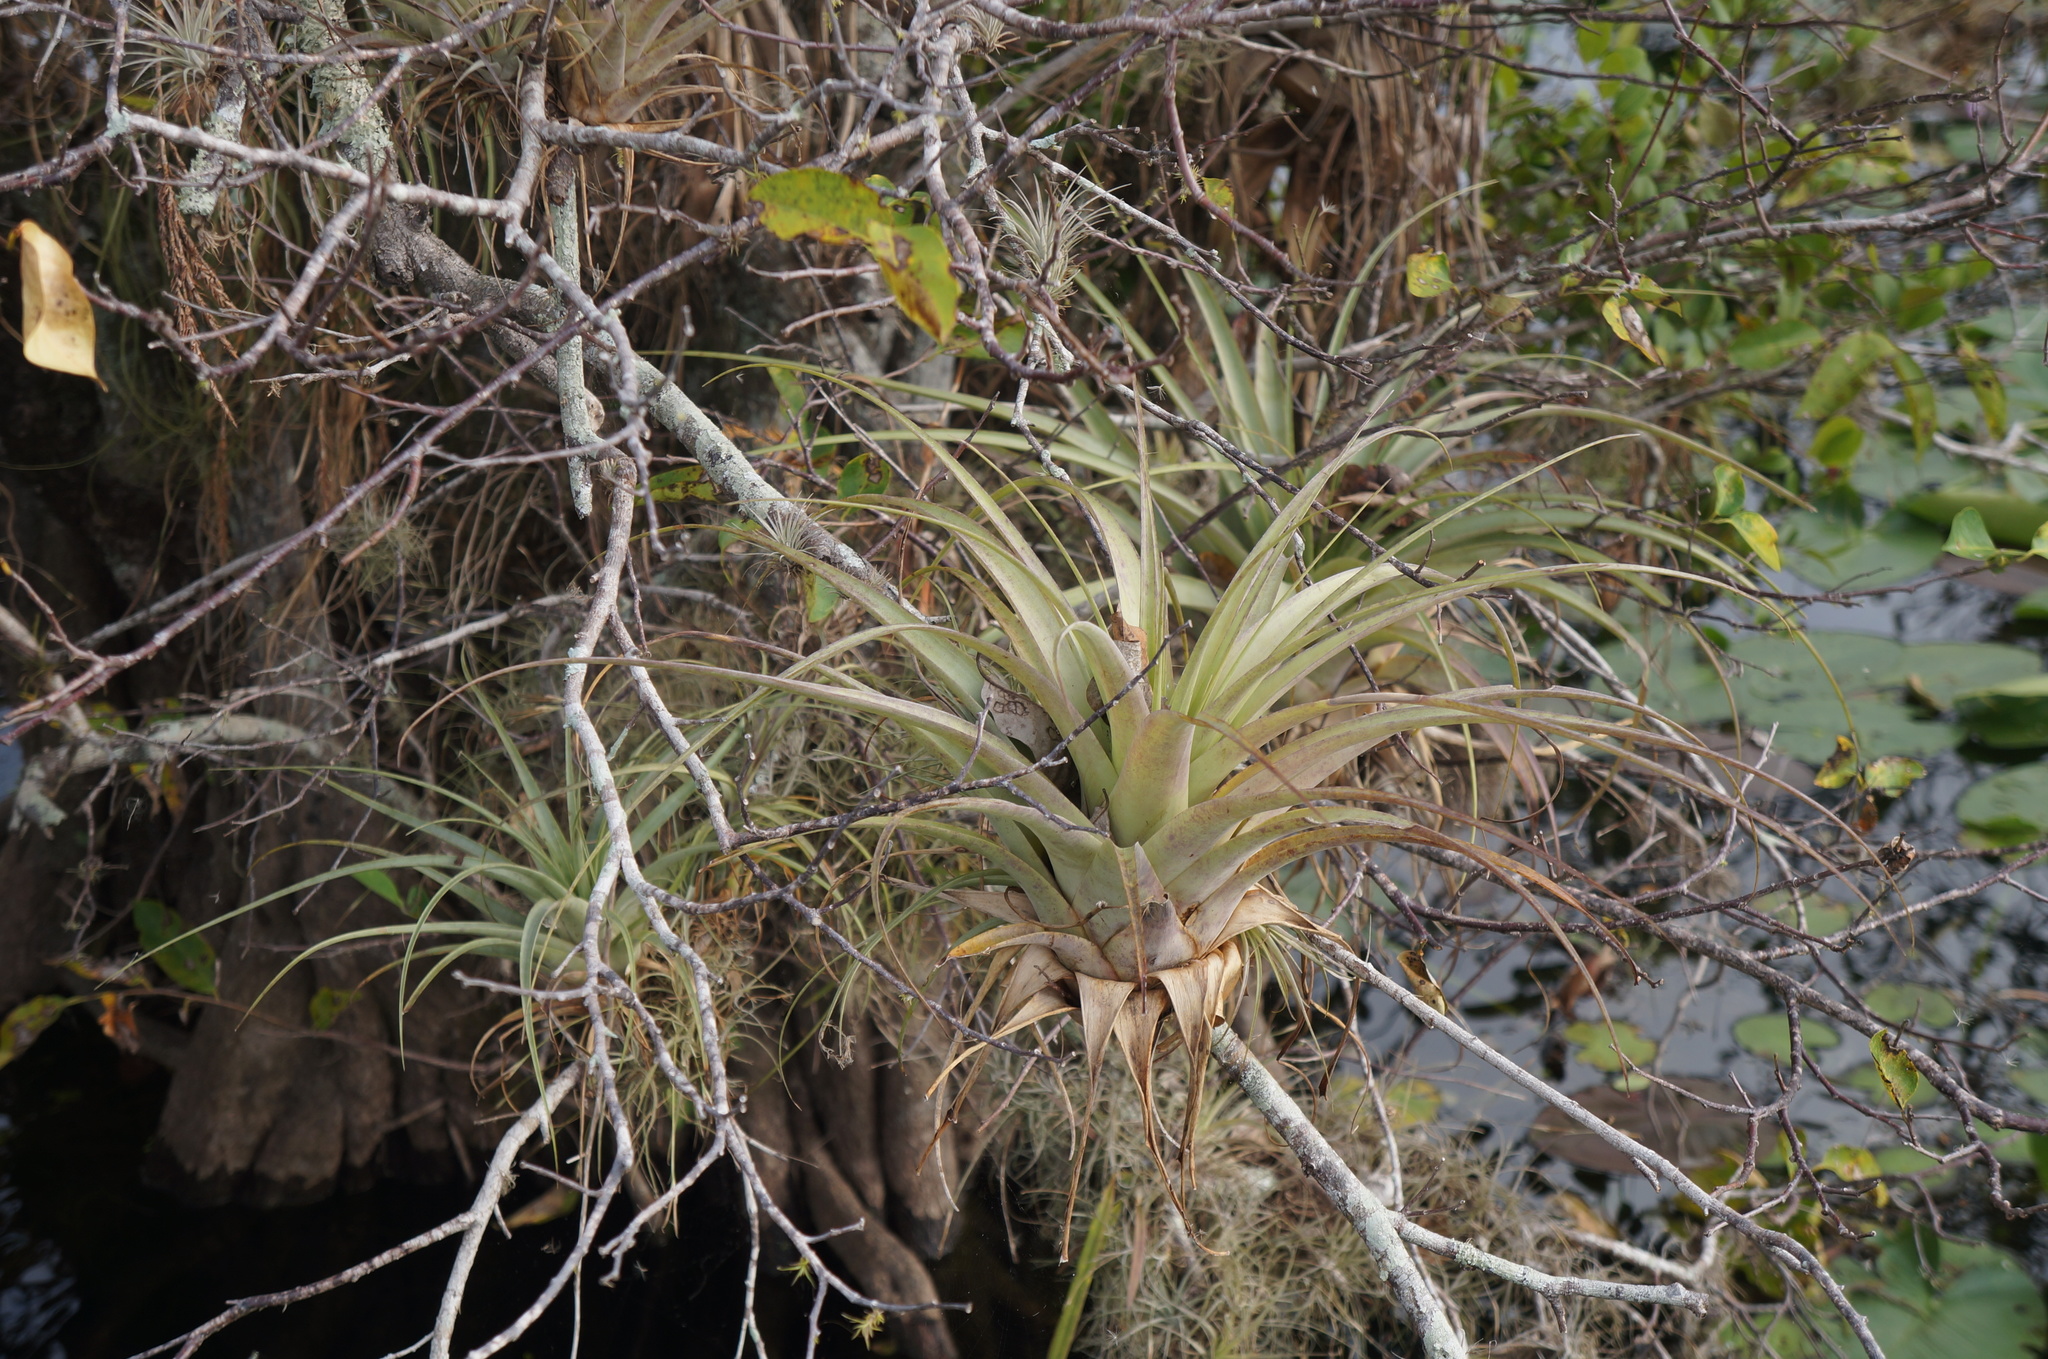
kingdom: Plantae
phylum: Tracheophyta
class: Liliopsida
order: Poales
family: Bromeliaceae
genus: Tillandsia
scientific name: Tillandsia utriculata
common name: Wild pine
